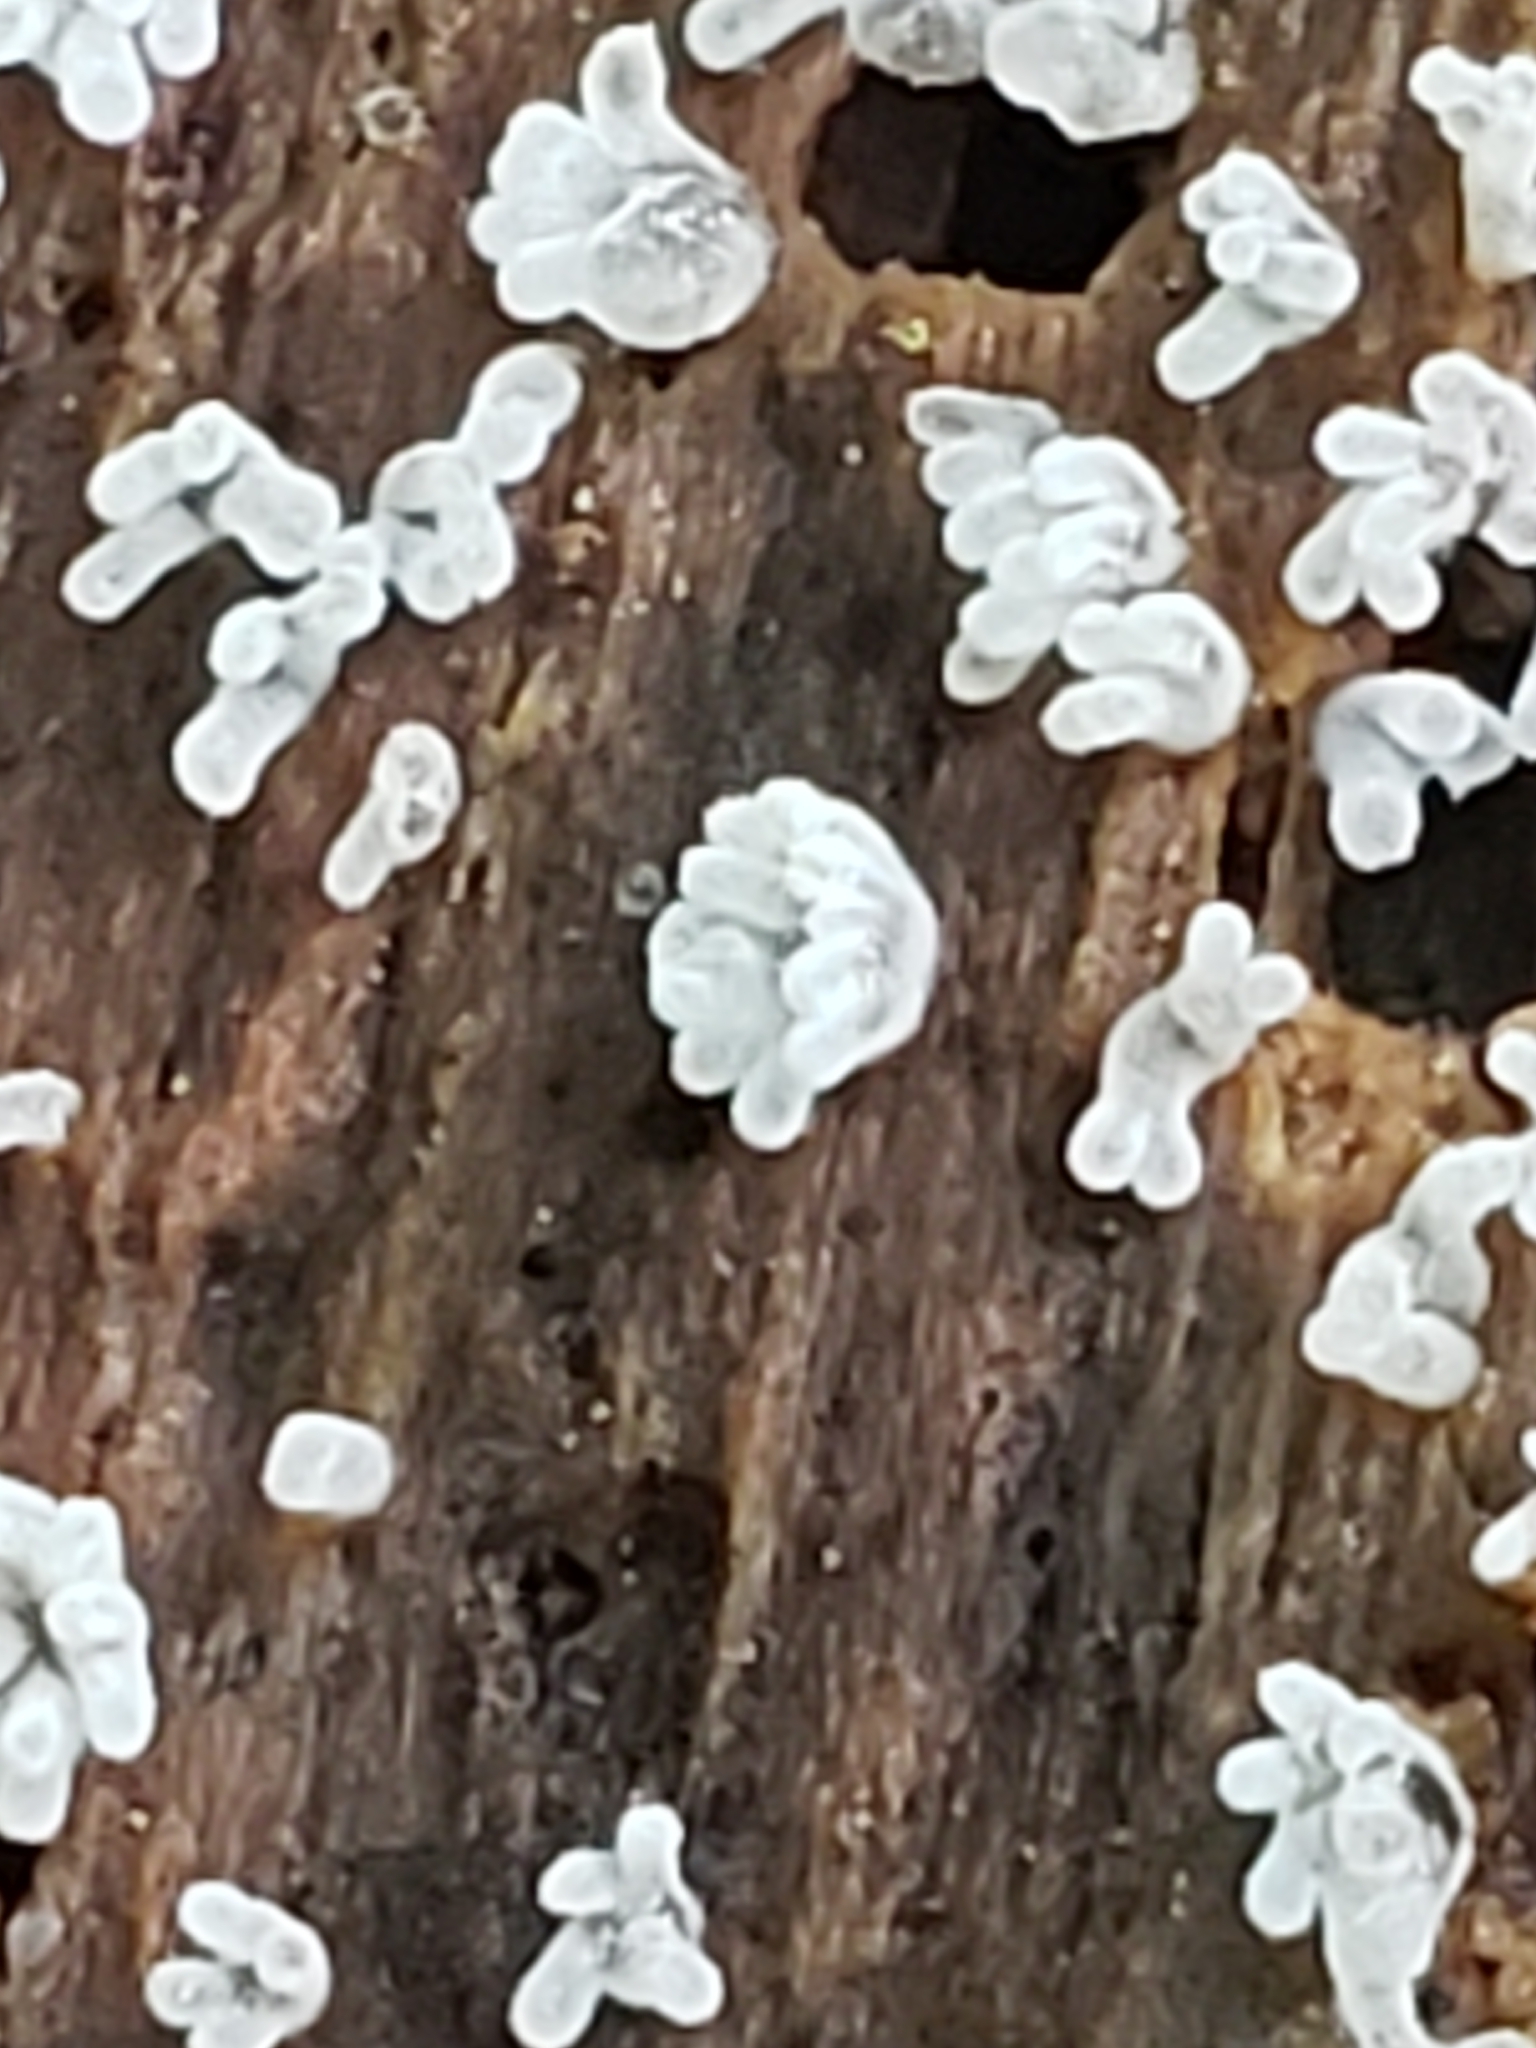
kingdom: Protozoa
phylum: Mycetozoa
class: Protosteliomycetes
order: Ceratiomyxales
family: Ceratiomyxaceae
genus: Ceratiomyxa
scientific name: Ceratiomyxa fruticulosa
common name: Honeycomb coral slime mold
